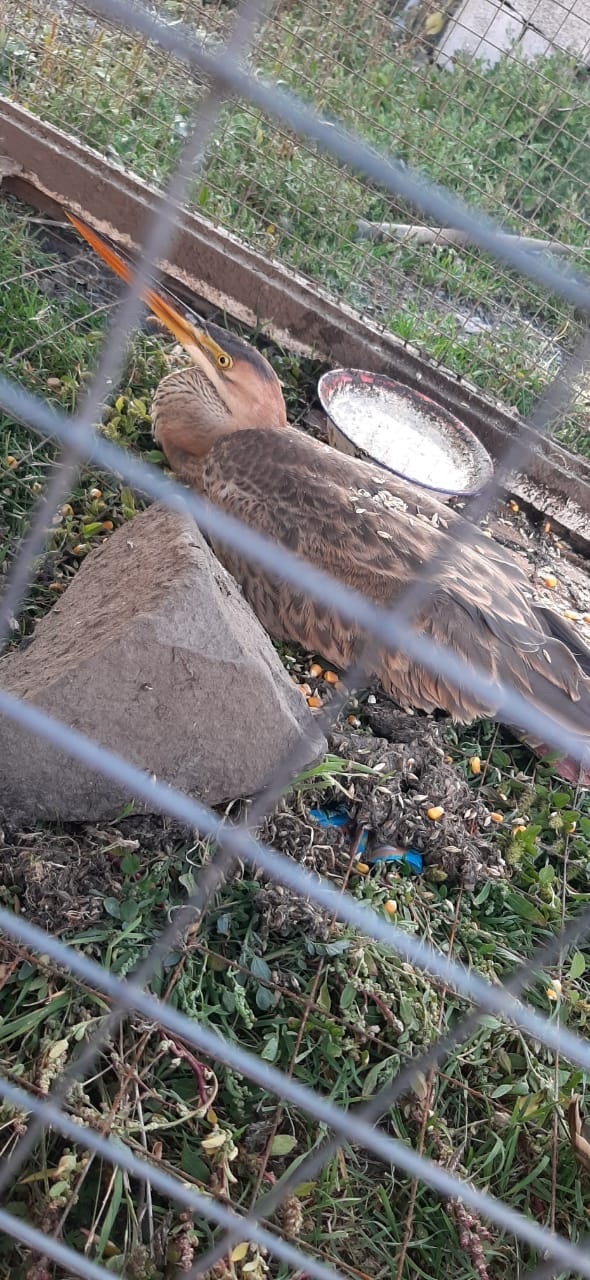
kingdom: Animalia
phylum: Chordata
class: Aves
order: Pelecaniformes
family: Ardeidae
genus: Ardea
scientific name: Ardea purpurea
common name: Purple heron
